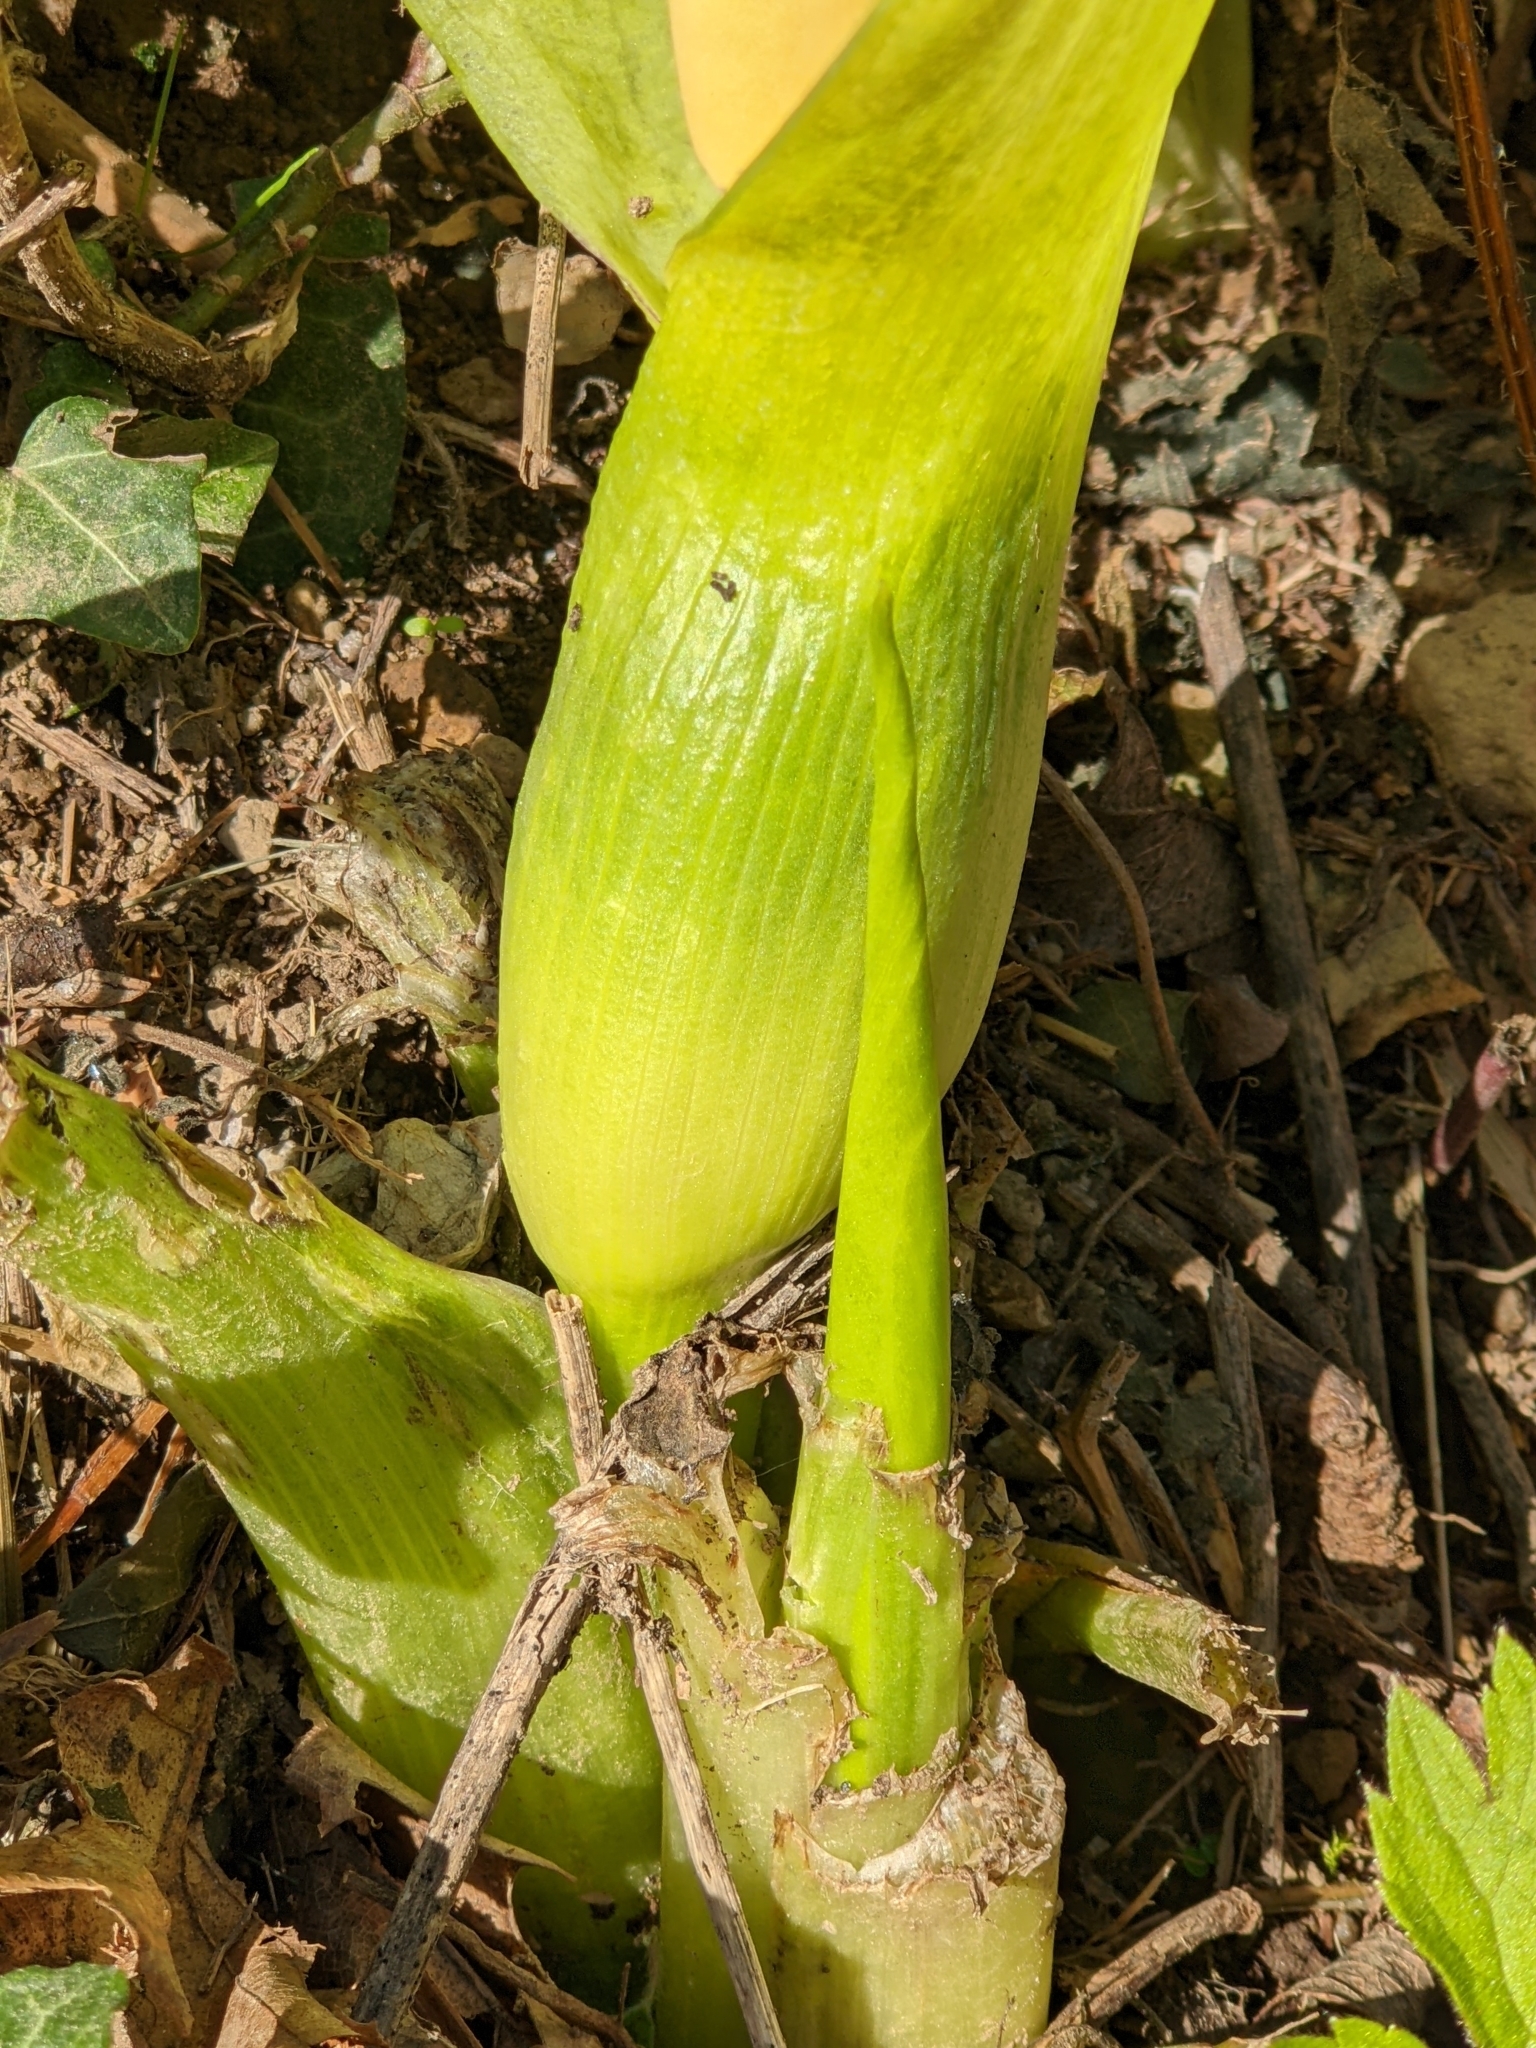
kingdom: Plantae
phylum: Tracheophyta
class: Liliopsida
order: Alismatales
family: Araceae
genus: Arum
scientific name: Arum italicum
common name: Italian lords-and-ladies
